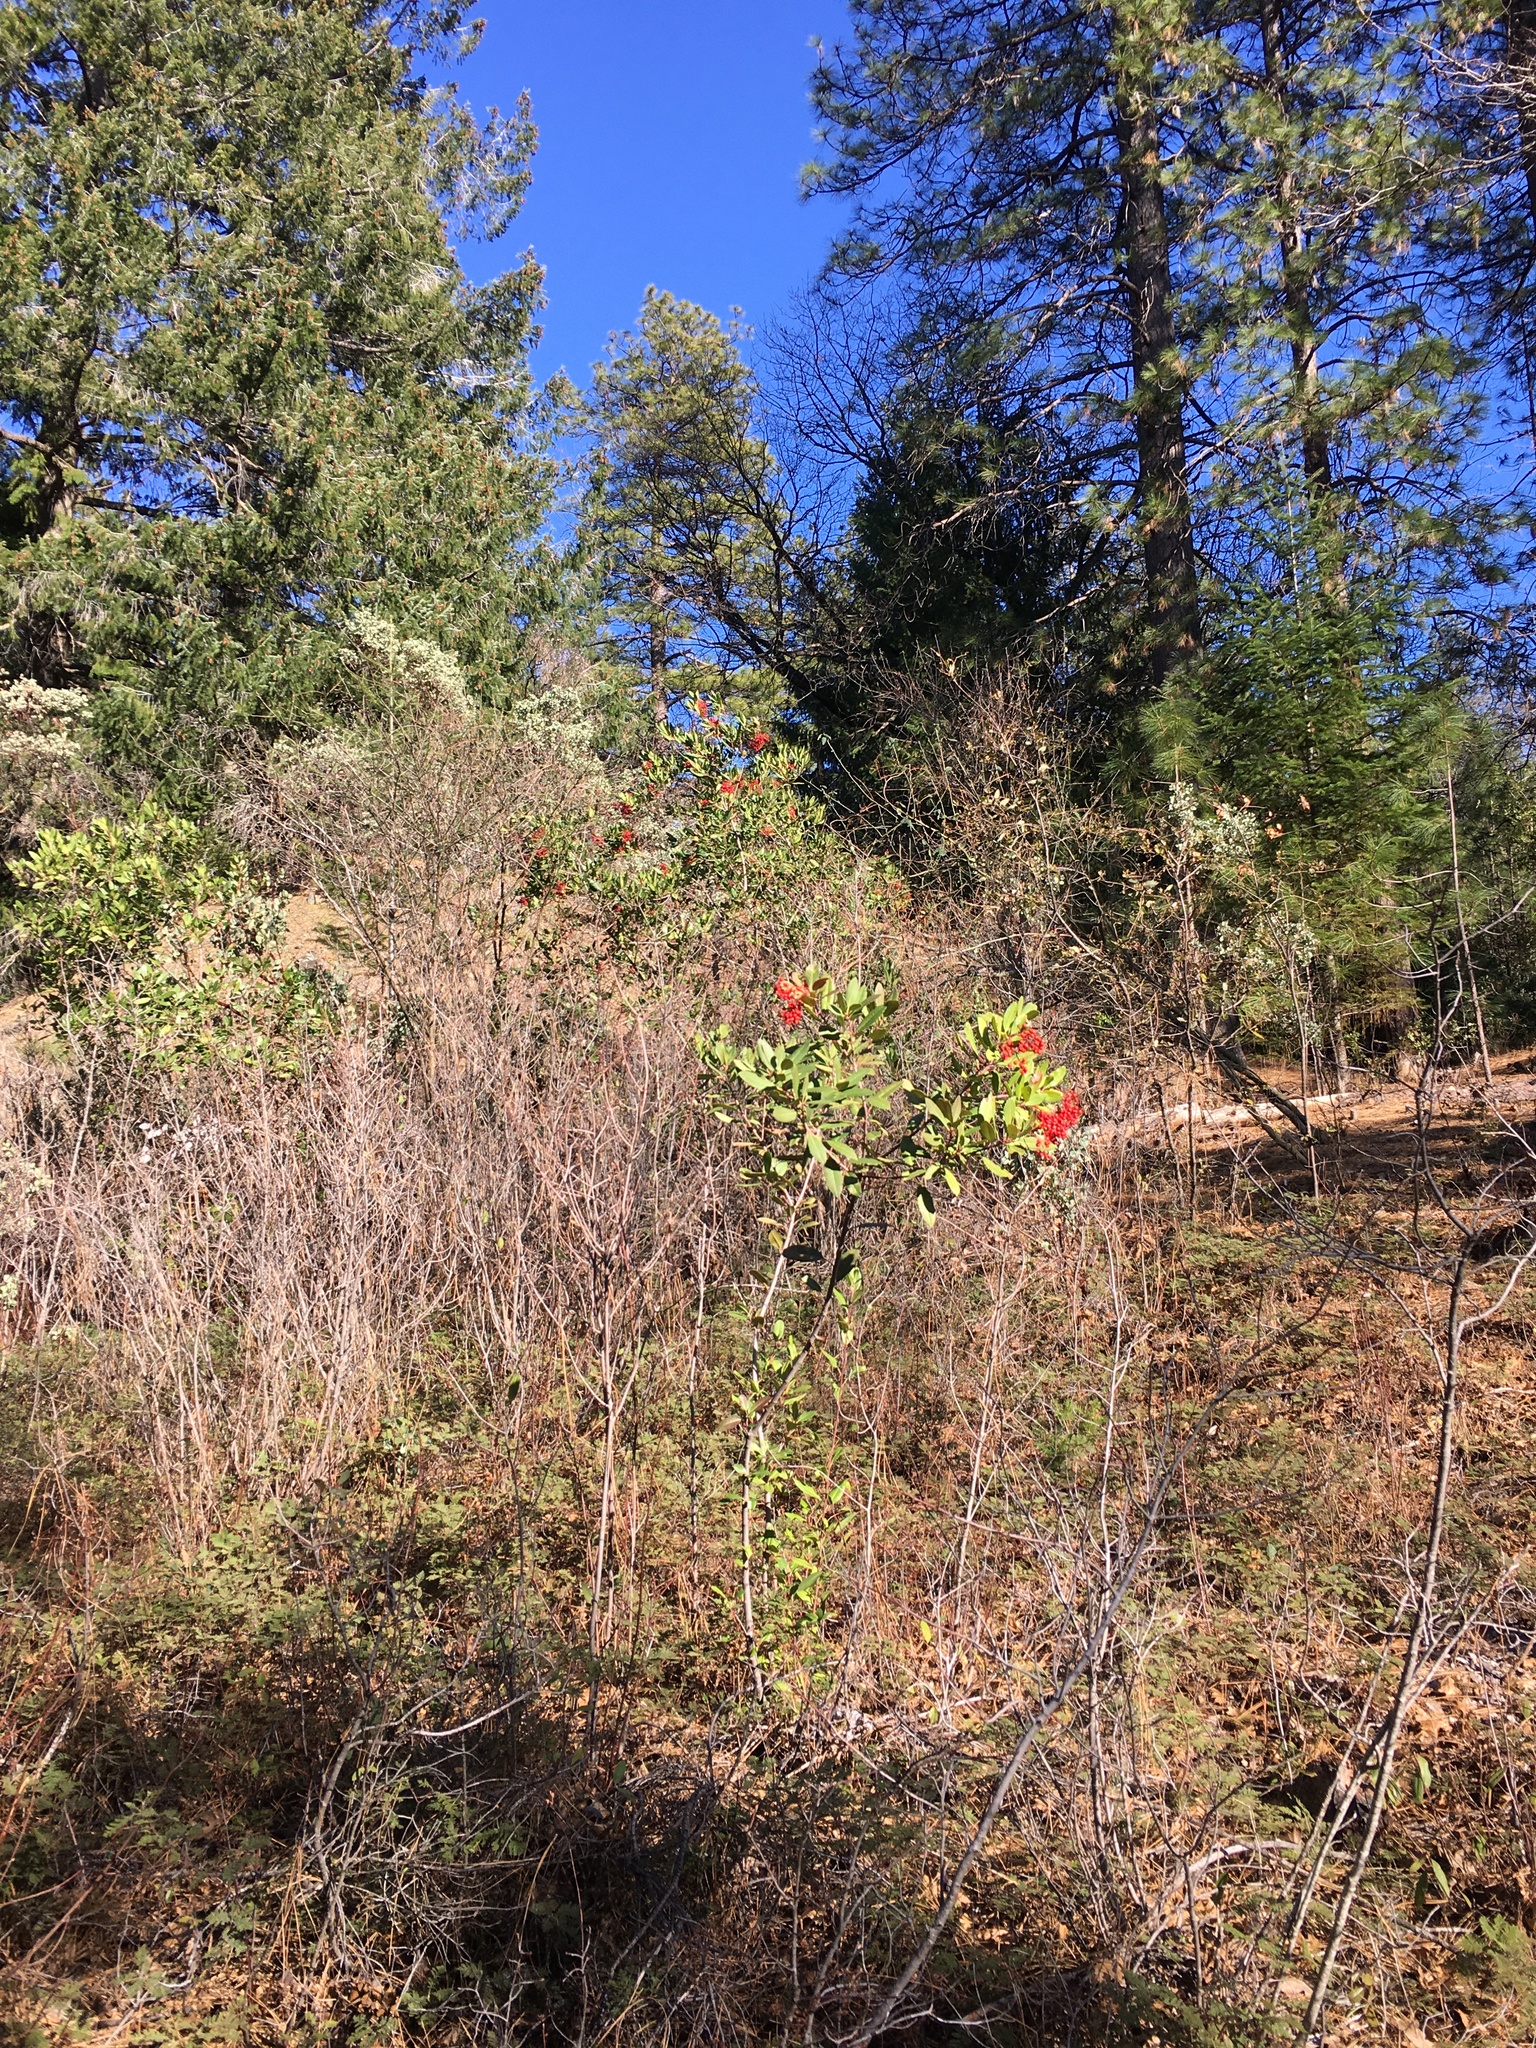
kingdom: Plantae
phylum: Tracheophyta
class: Magnoliopsida
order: Rosales
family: Rosaceae
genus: Heteromeles
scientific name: Heteromeles arbutifolia
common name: California-holly
